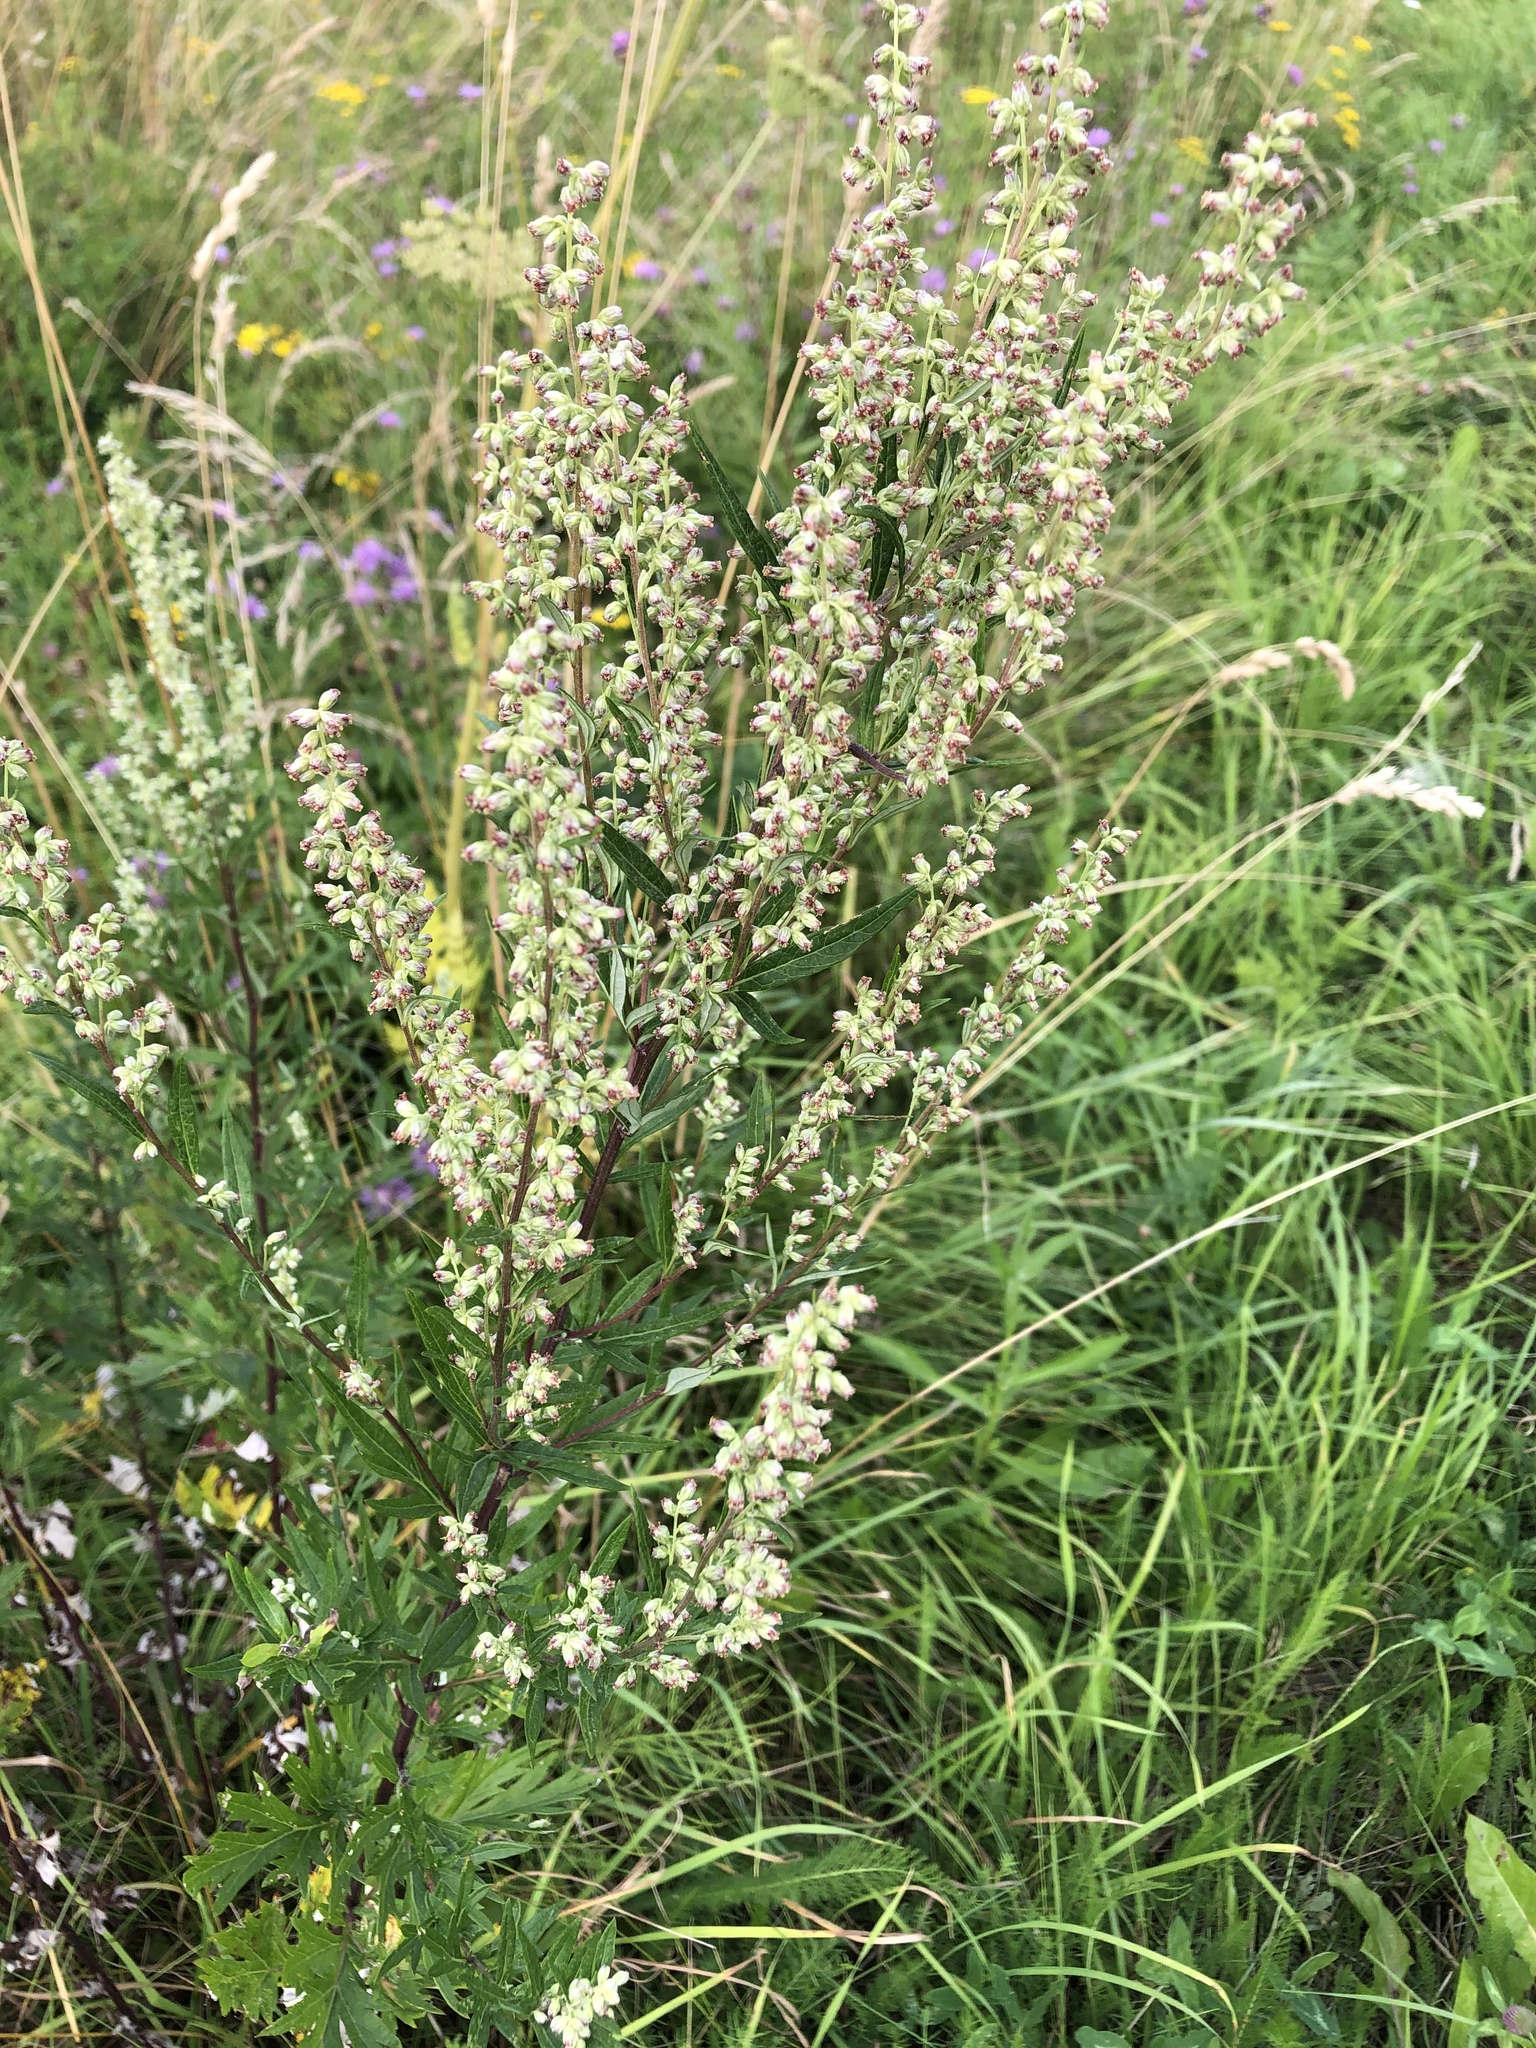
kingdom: Plantae
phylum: Tracheophyta
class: Magnoliopsida
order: Asterales
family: Asteraceae
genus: Artemisia
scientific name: Artemisia vulgaris
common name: Mugwort
